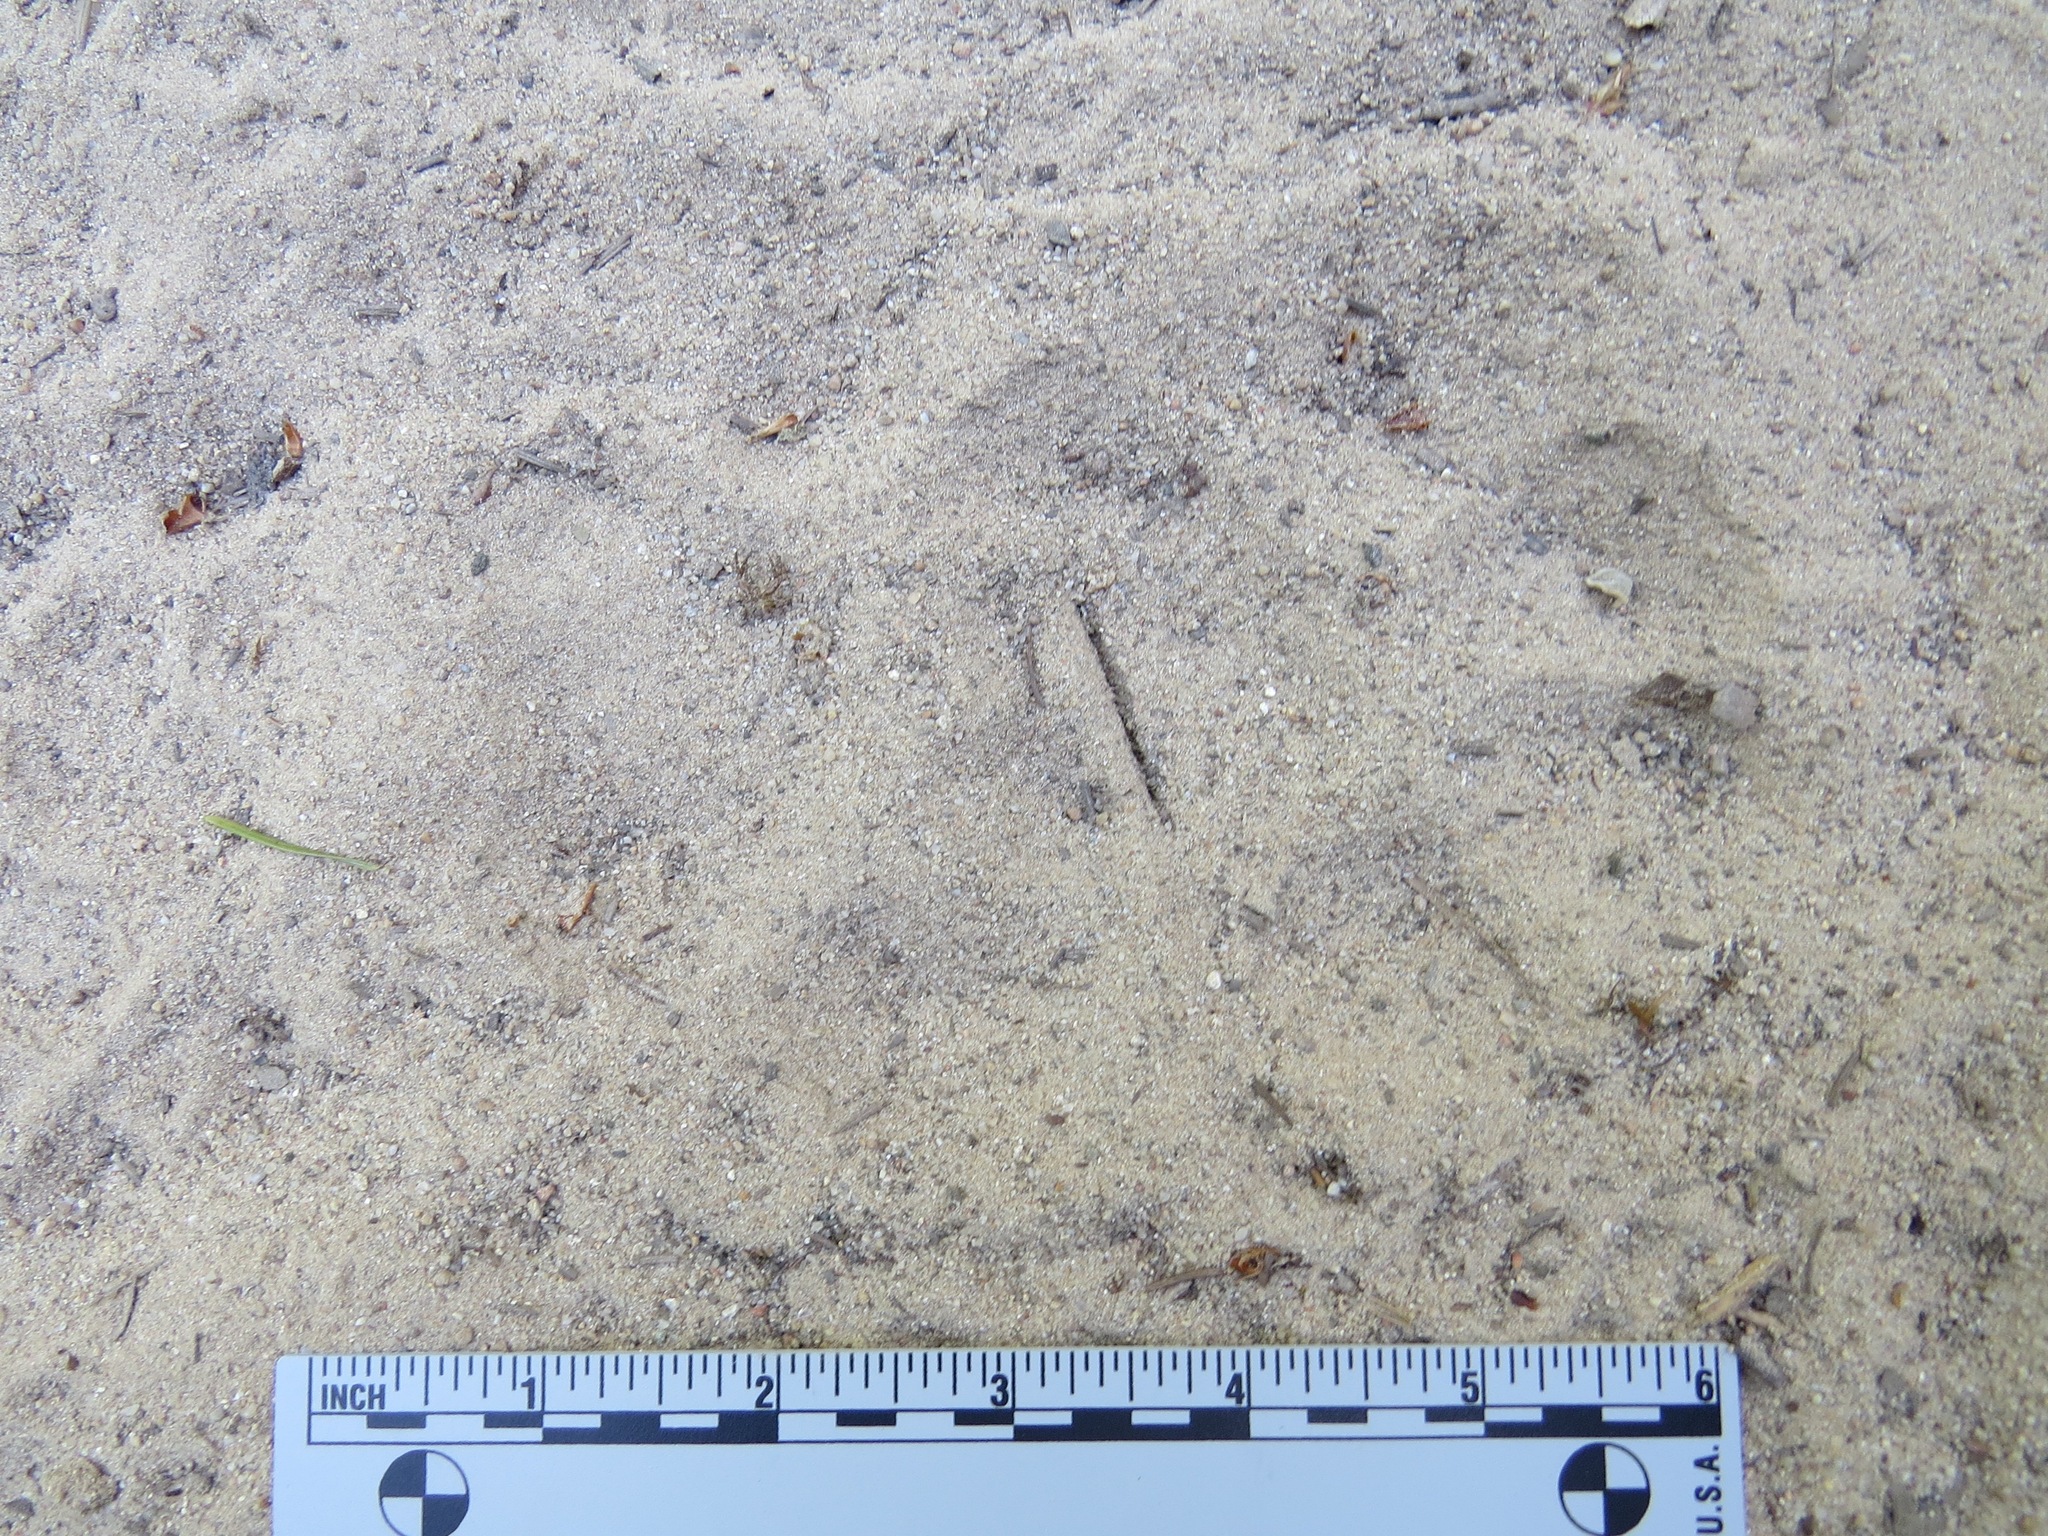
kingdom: Animalia
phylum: Chordata
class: Mammalia
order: Carnivora
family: Felidae
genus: Puma
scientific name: Puma concolor
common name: Puma
